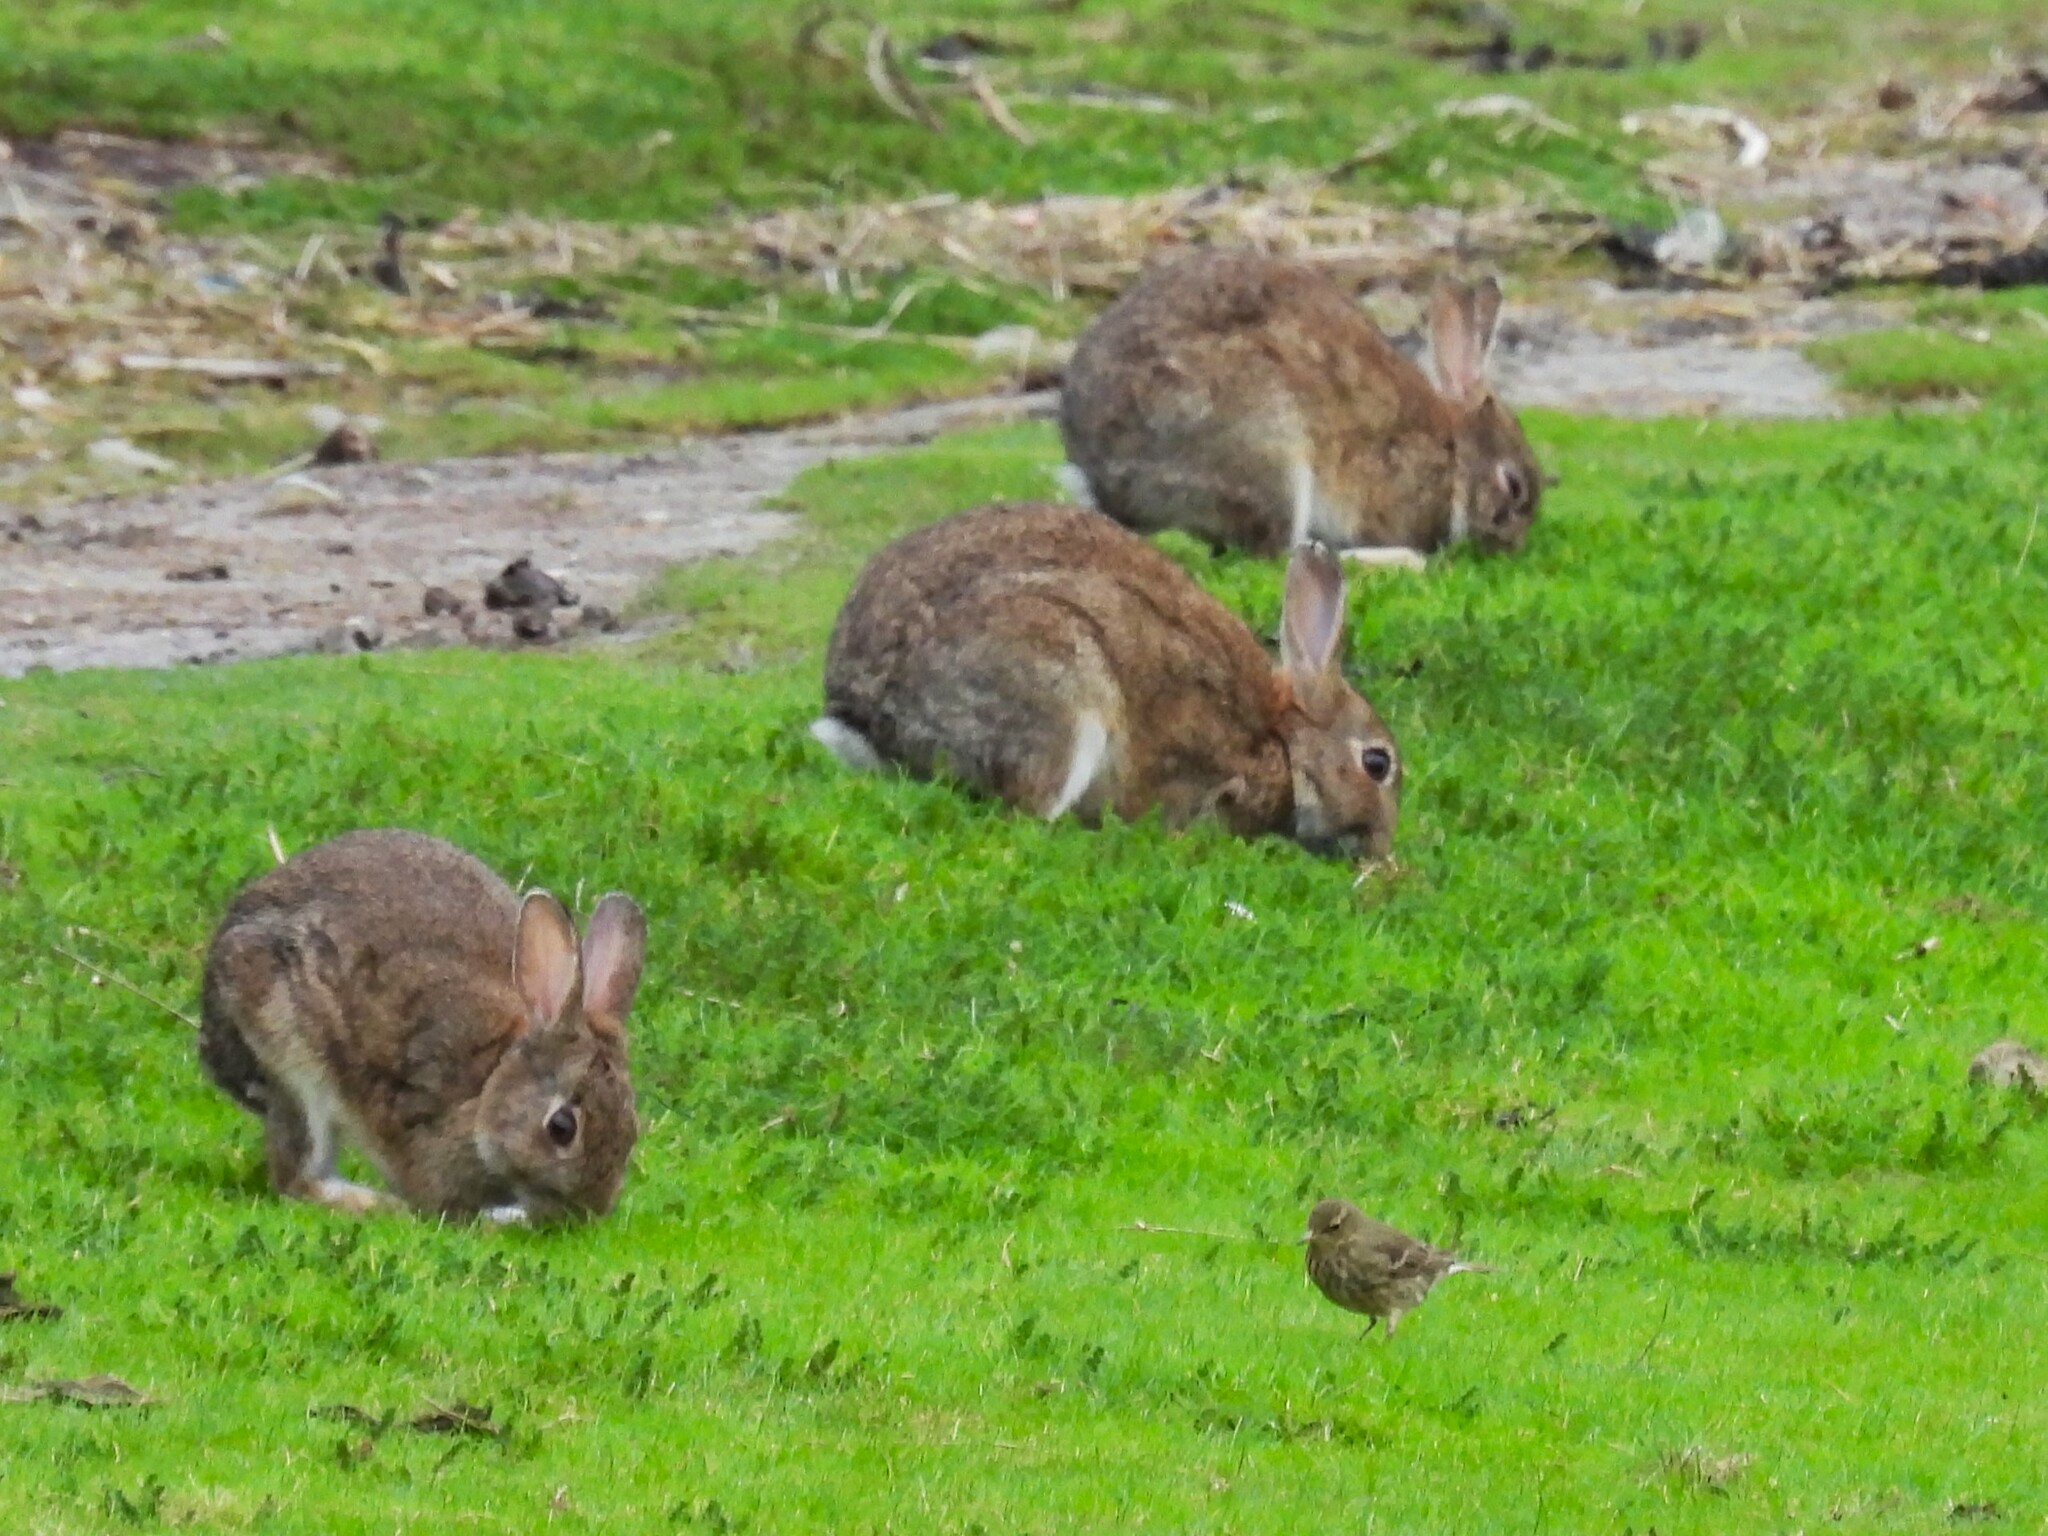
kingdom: Animalia
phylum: Chordata
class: Mammalia
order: Lagomorpha
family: Leporidae
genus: Oryctolagus
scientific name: Oryctolagus cuniculus
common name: European rabbit
